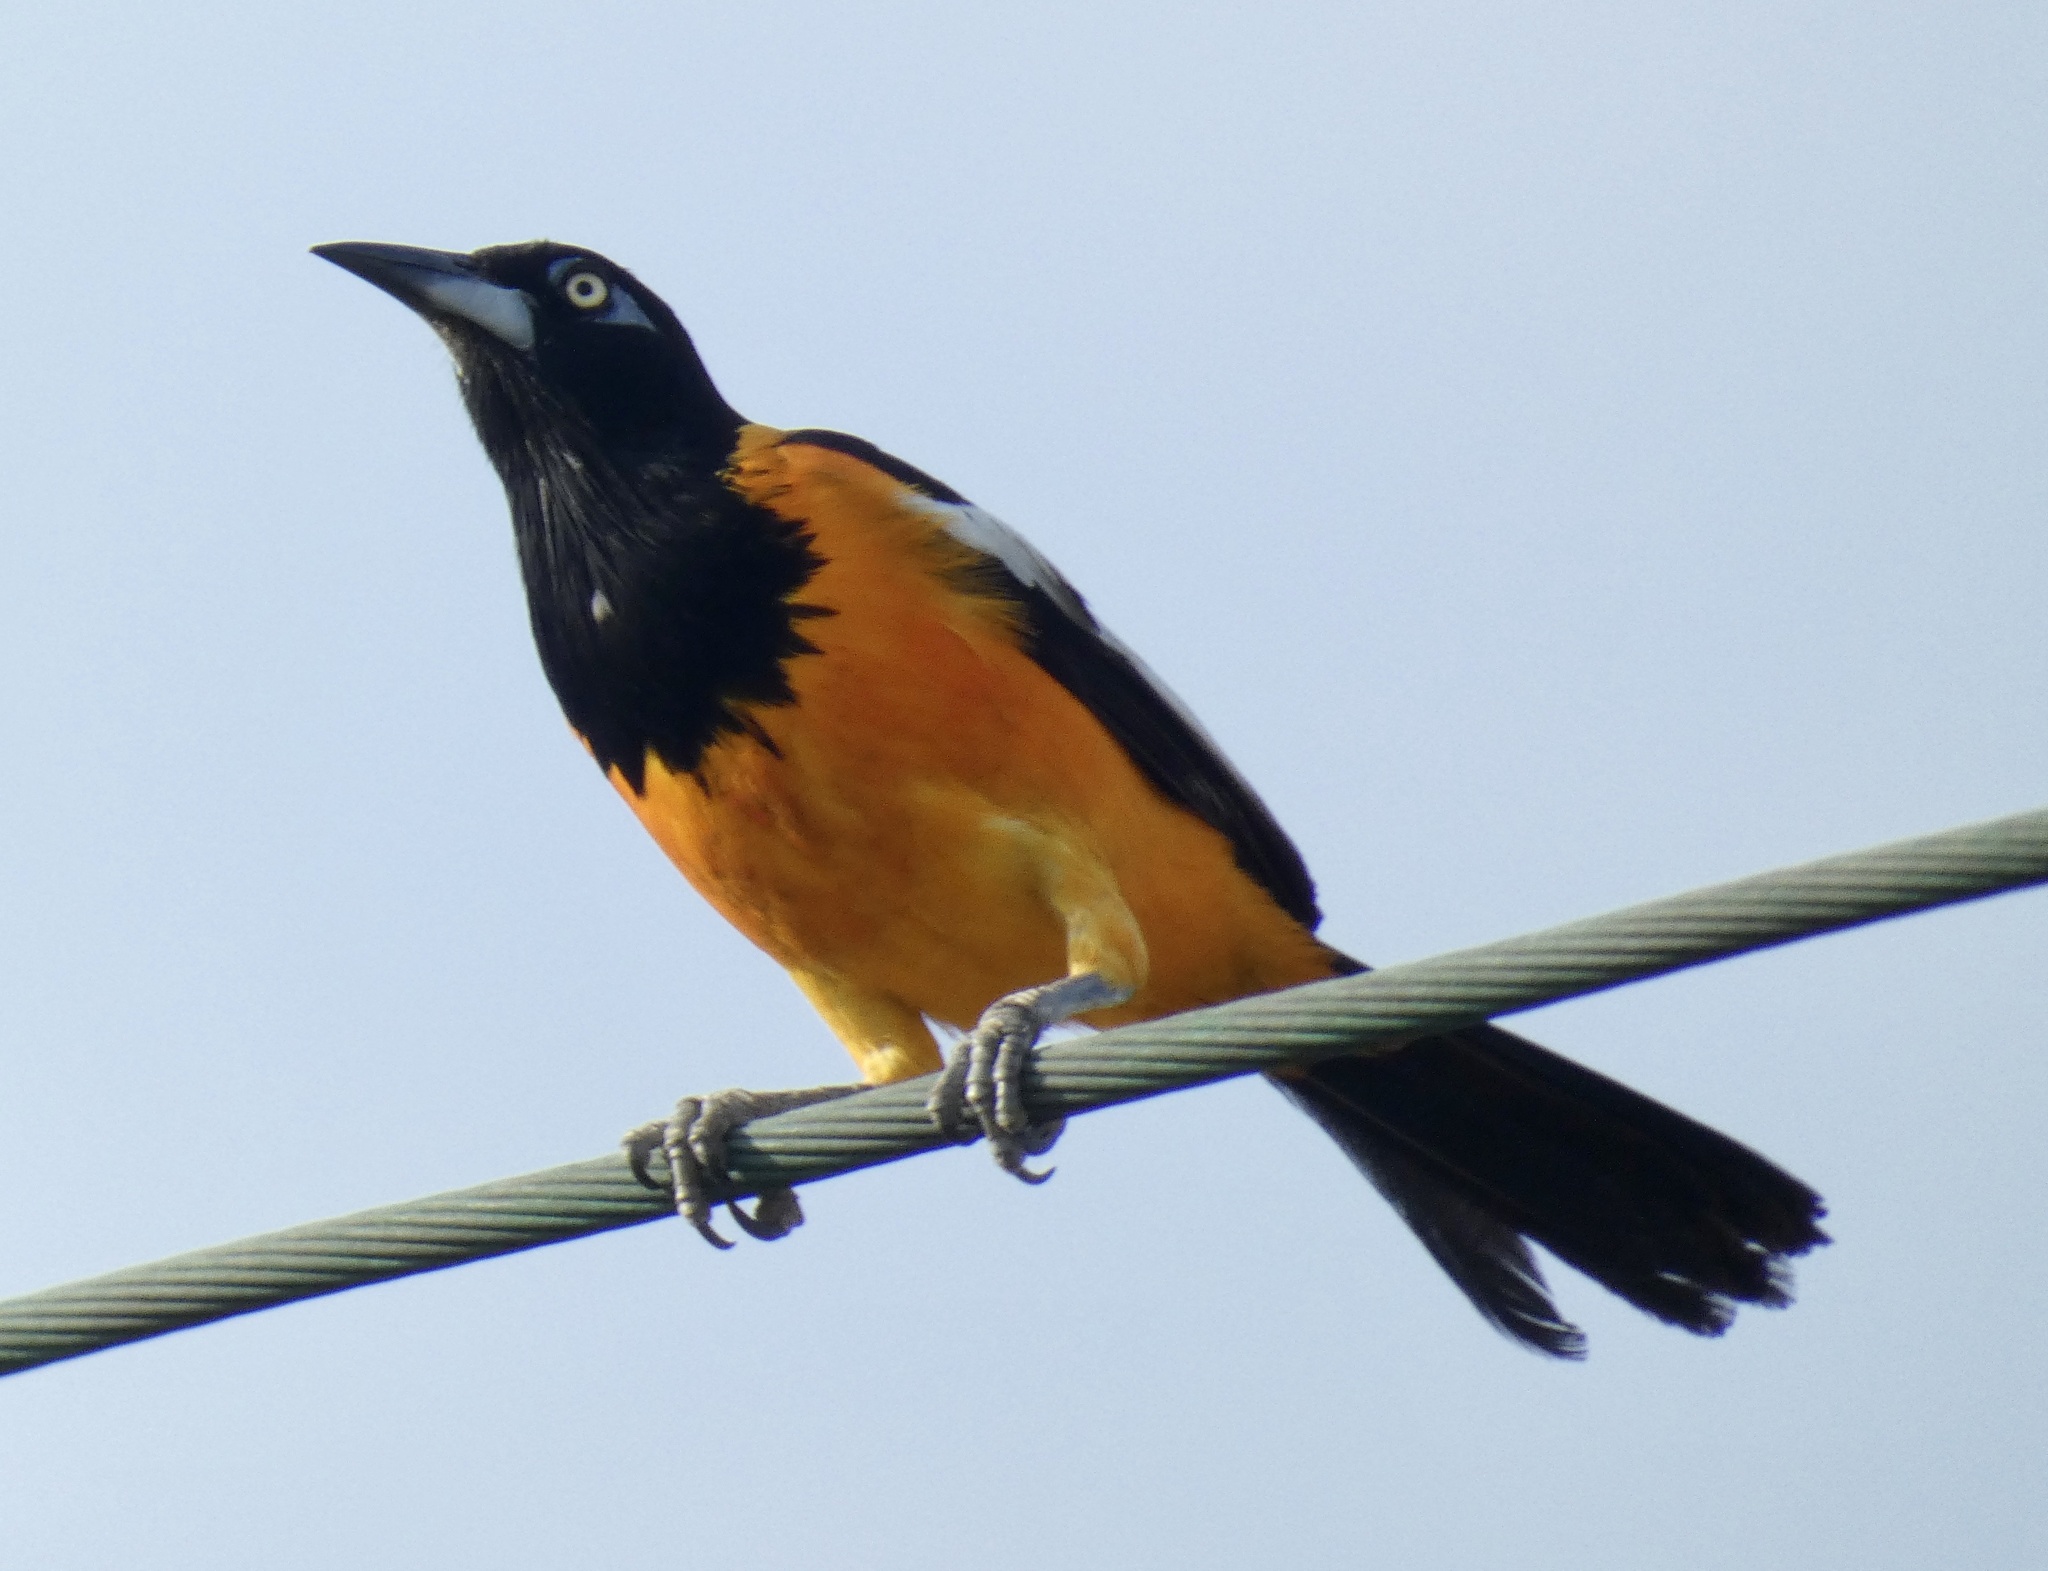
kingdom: Animalia
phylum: Chordata
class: Aves
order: Passeriformes
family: Icteridae
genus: Icterus
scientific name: Icterus icterus
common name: Venezuelan troupial
